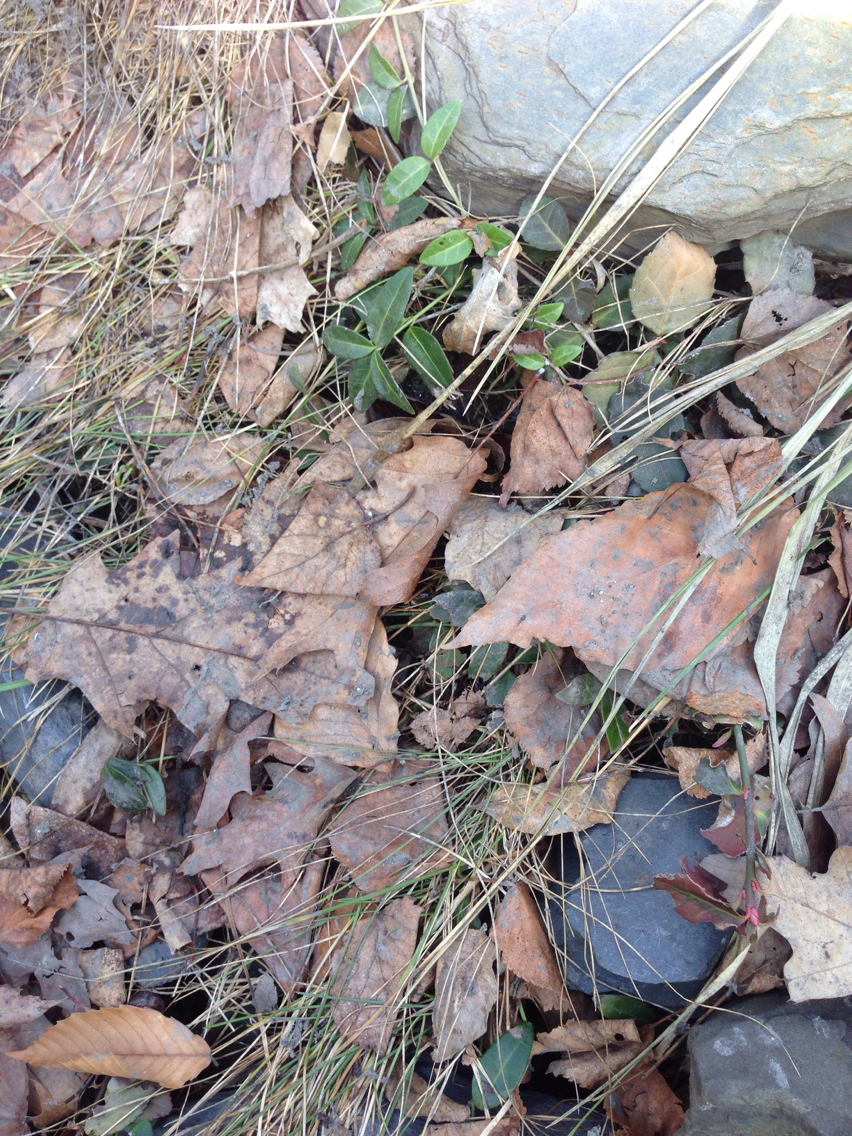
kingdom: Plantae
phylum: Tracheophyta
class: Magnoliopsida
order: Gentianales
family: Apocynaceae
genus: Vinca
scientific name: Vinca minor
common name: Lesser periwinkle
